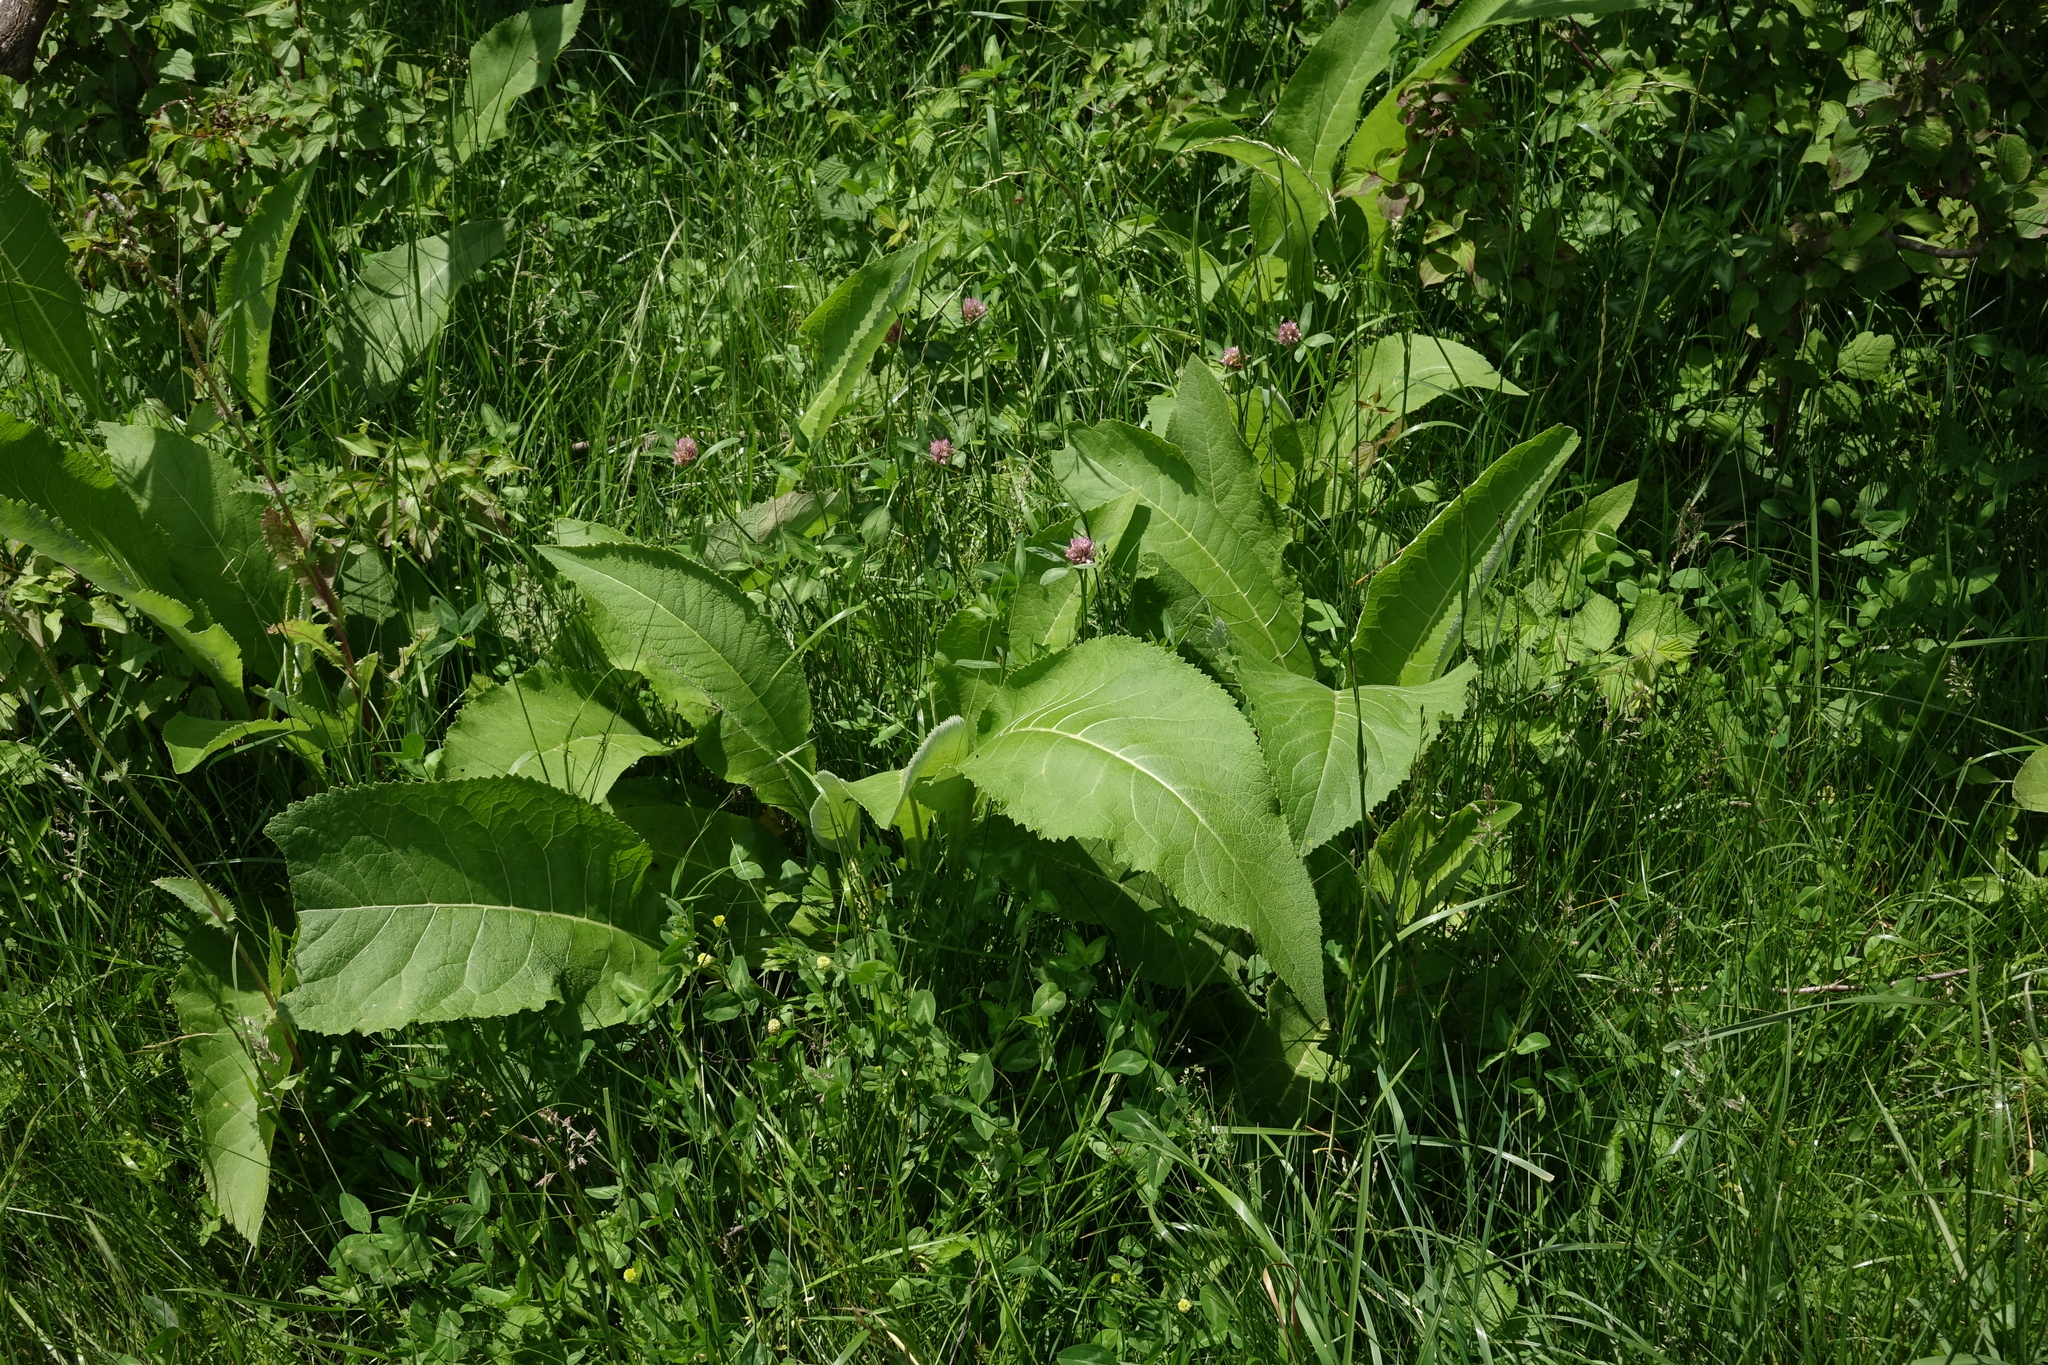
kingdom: Plantae
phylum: Tracheophyta
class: Magnoliopsida
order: Asterales
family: Asteraceae
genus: Inula
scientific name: Inula helenium
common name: Elecampane
